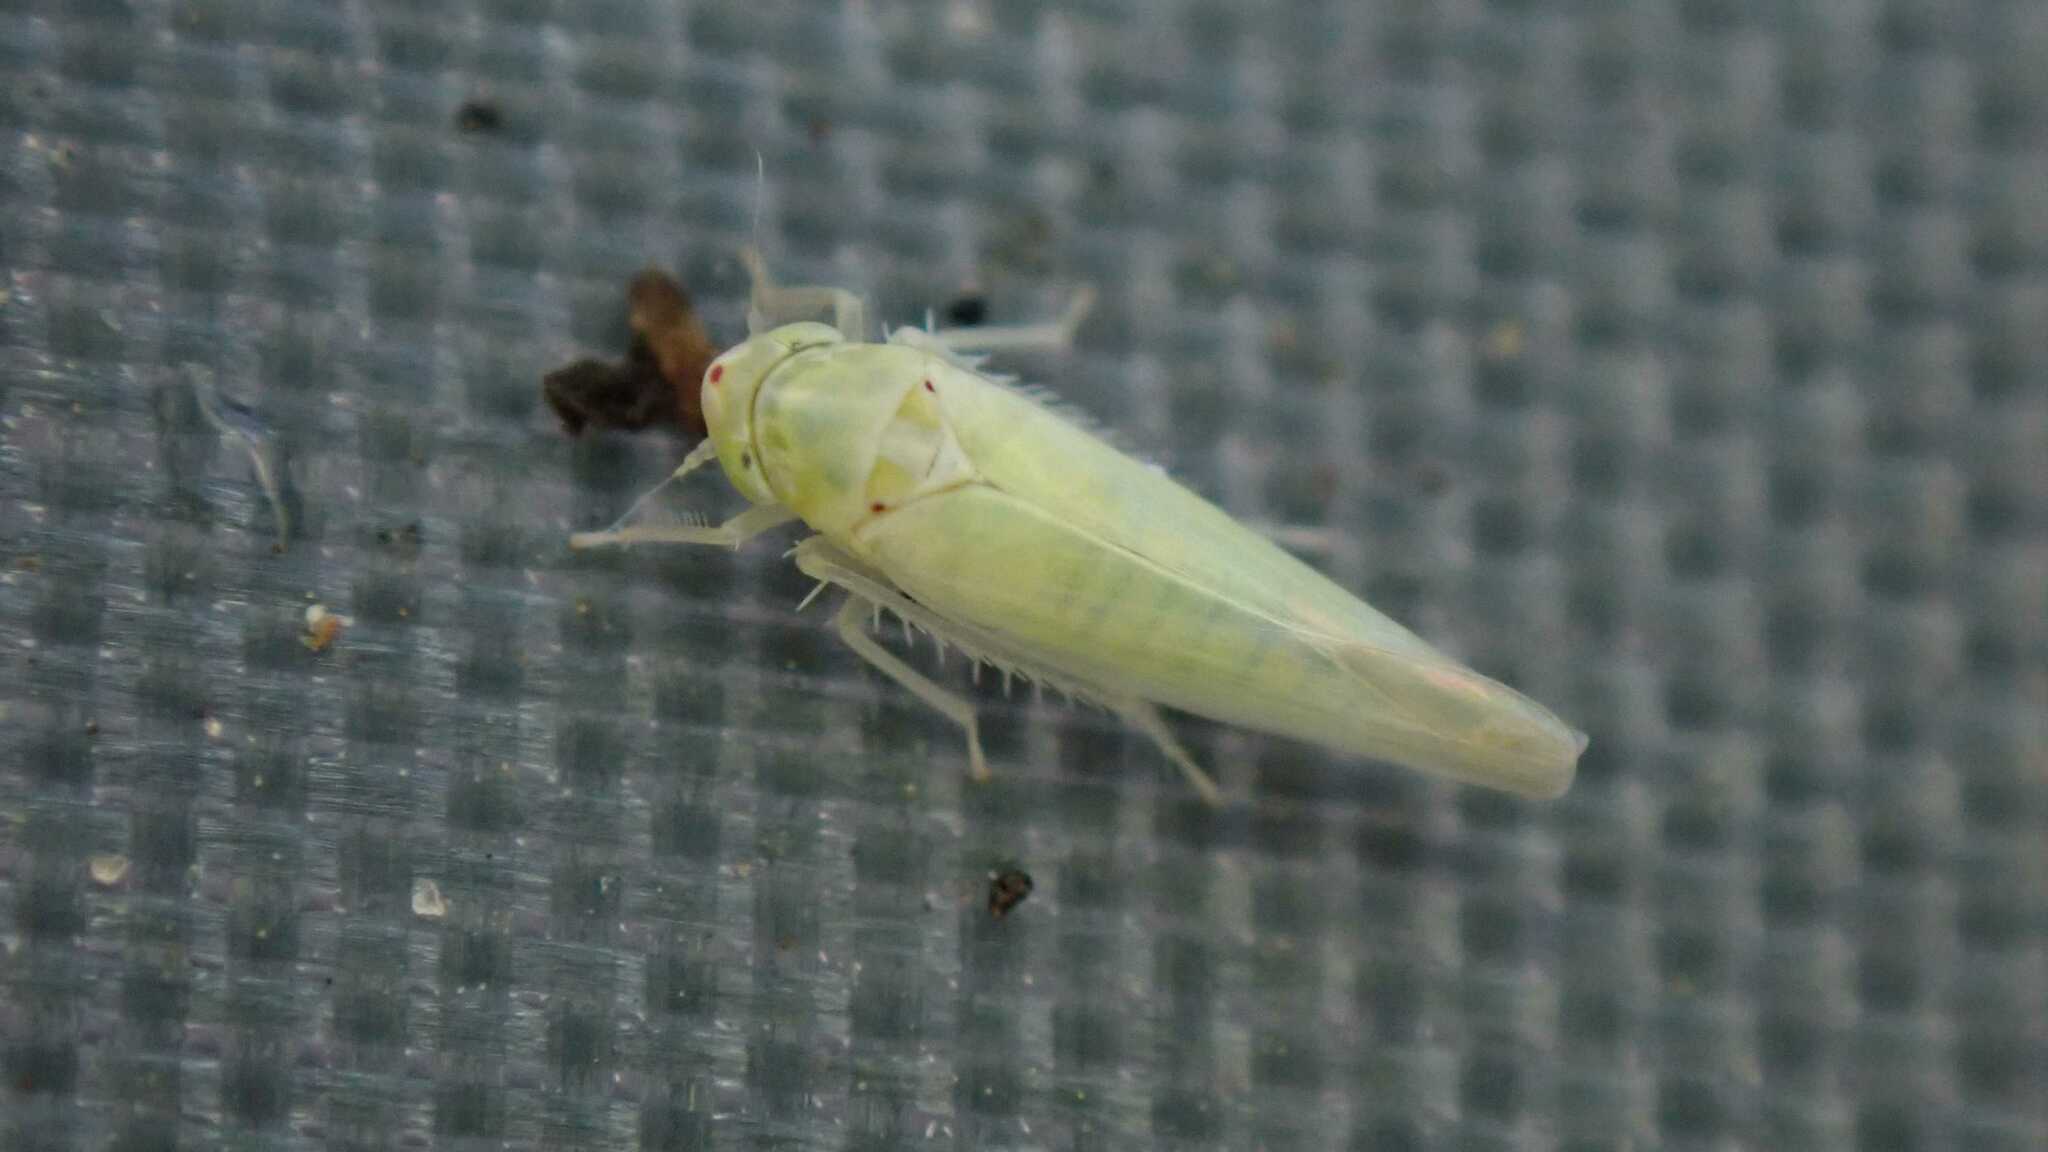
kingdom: Animalia
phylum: Arthropoda
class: Insecta
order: Hemiptera
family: Cicadellidae
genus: Zygina
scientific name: Zygina nivea
